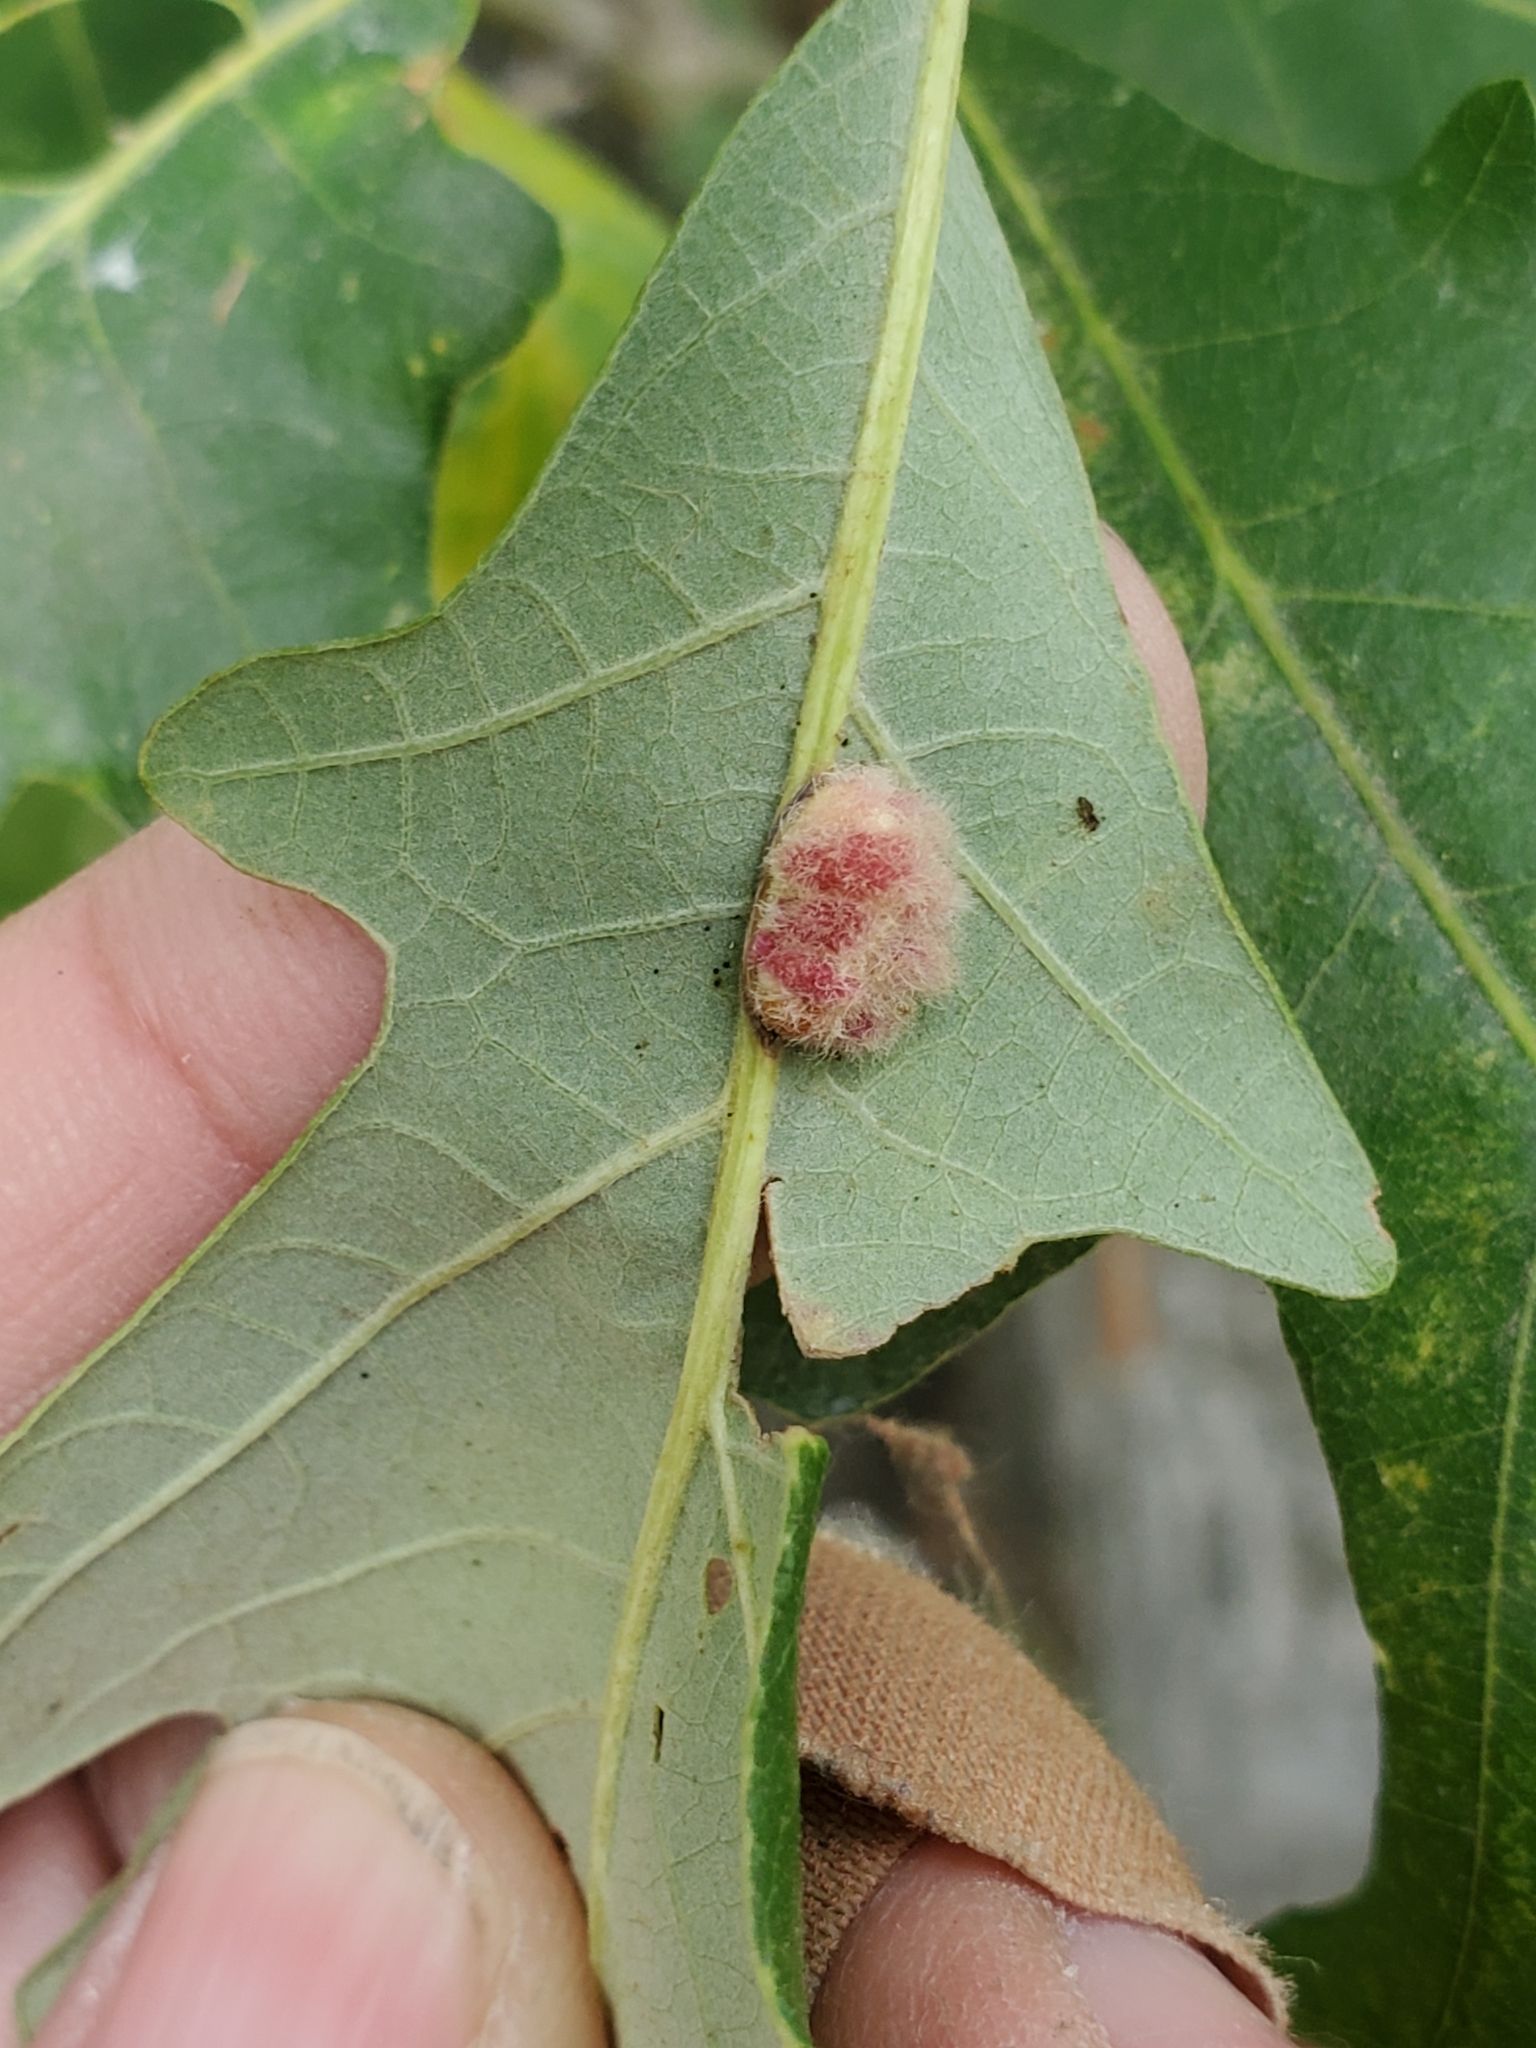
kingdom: Animalia
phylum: Arthropoda
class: Insecta
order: Hymenoptera
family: Cynipidae
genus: Andricus
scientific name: Andricus Druon ignotum
